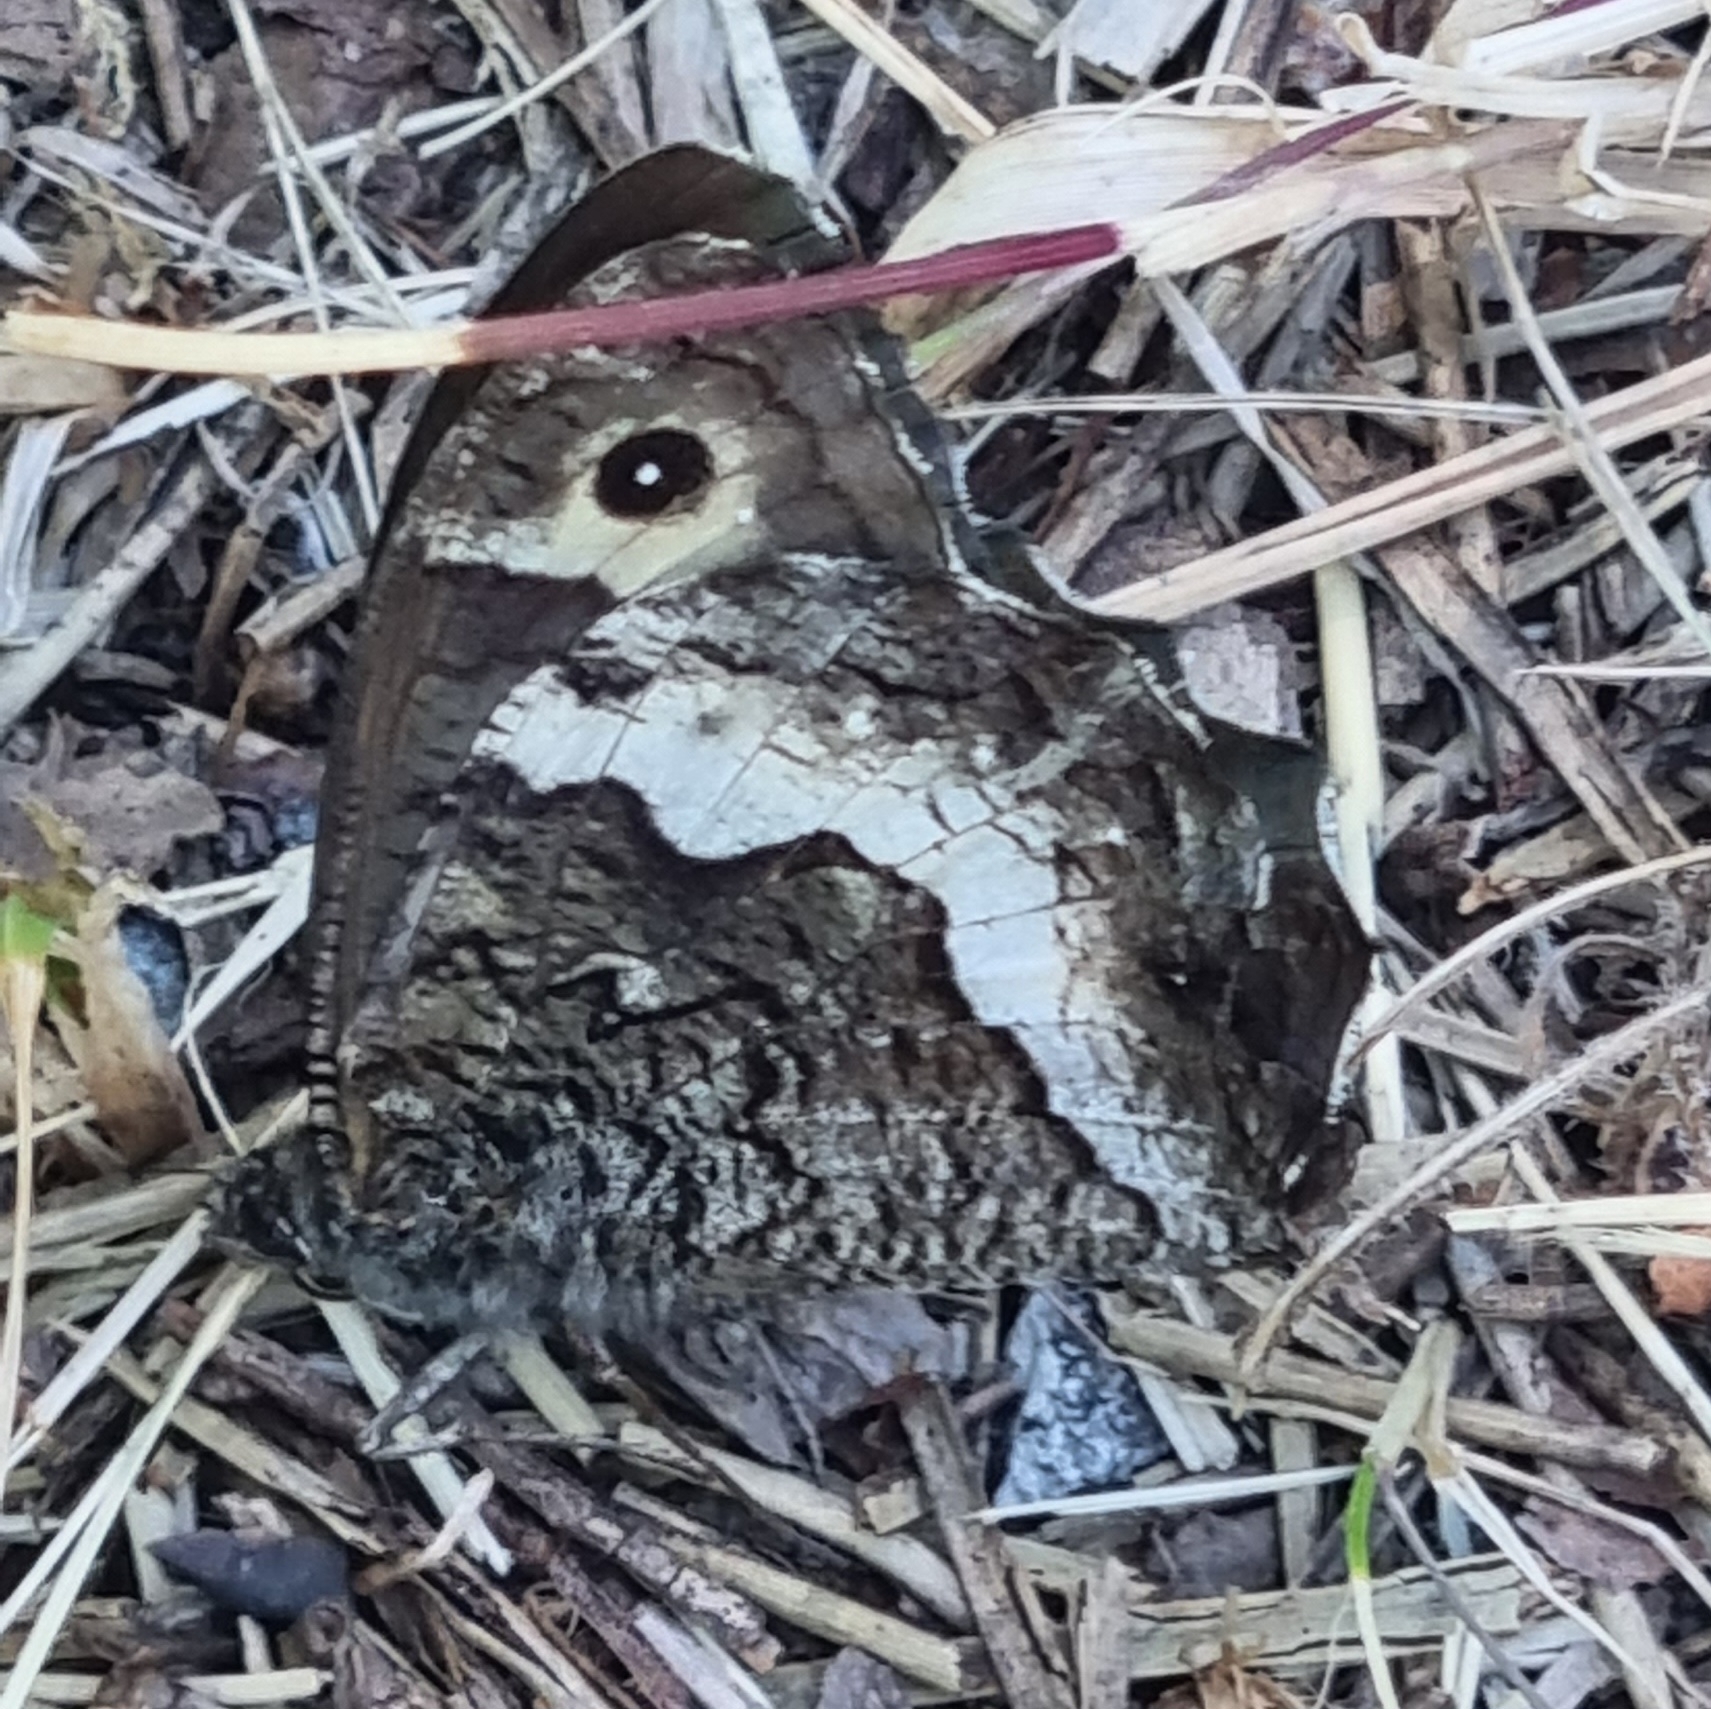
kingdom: Animalia
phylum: Arthropoda
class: Insecta
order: Lepidoptera
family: Nymphalidae
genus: Hipparchia
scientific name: Hipparchia fagi
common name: Woodland grayling
